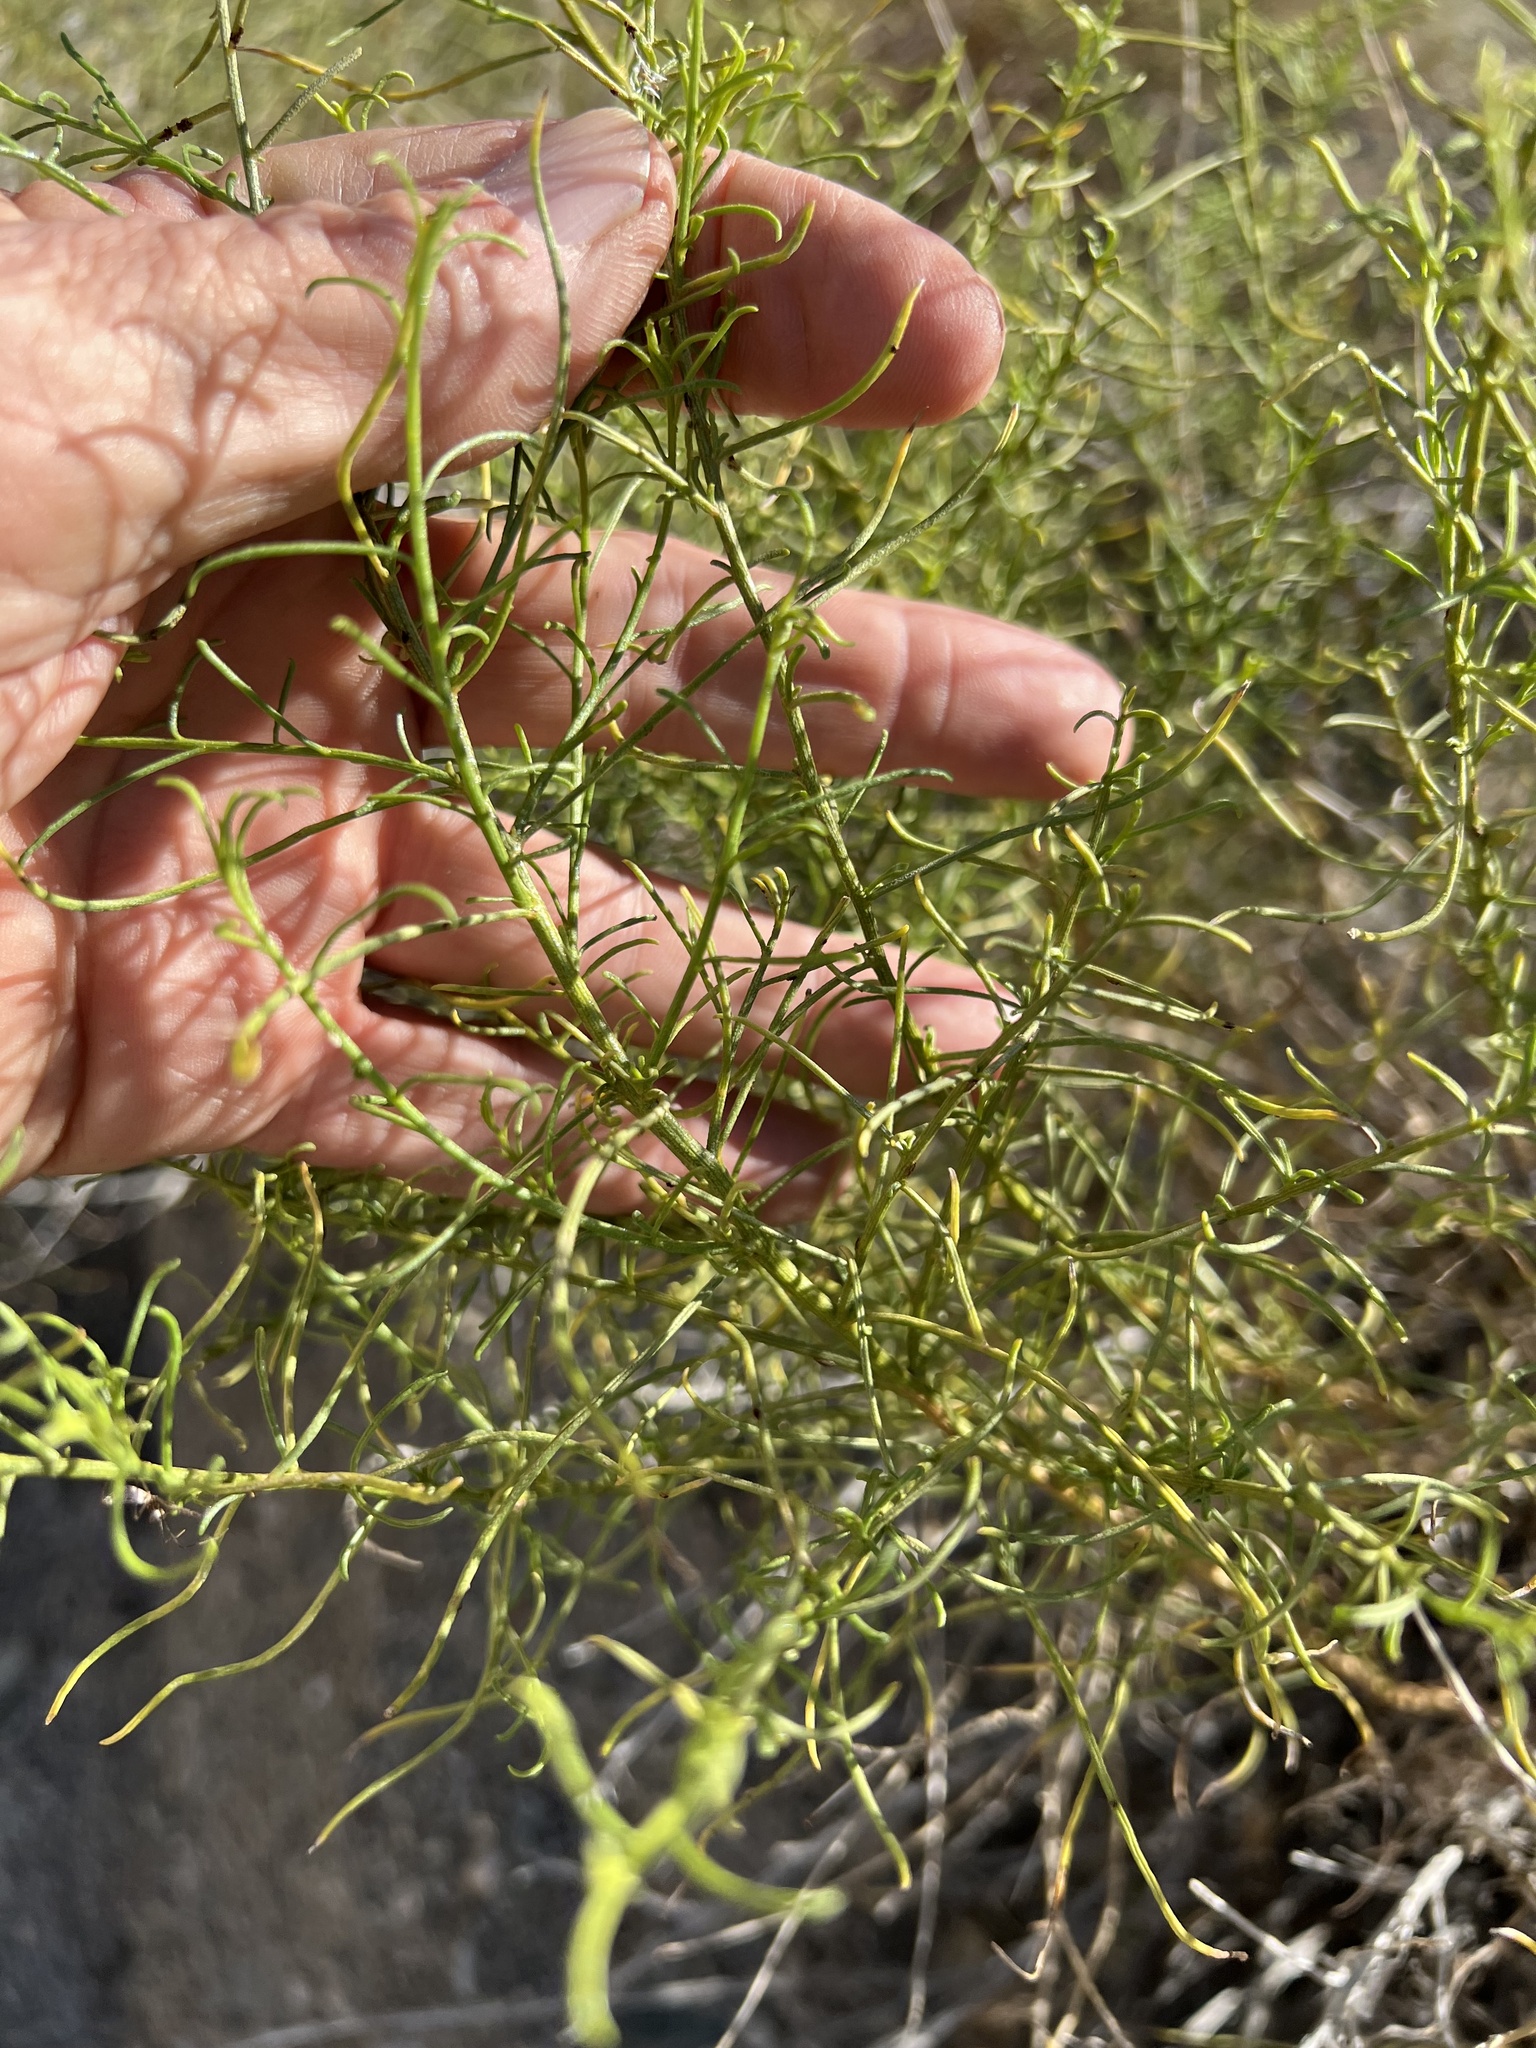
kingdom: Plantae
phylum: Tracheophyta
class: Magnoliopsida
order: Asterales
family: Asteraceae
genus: Ambrosia
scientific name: Ambrosia salsola
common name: Burrobrush
